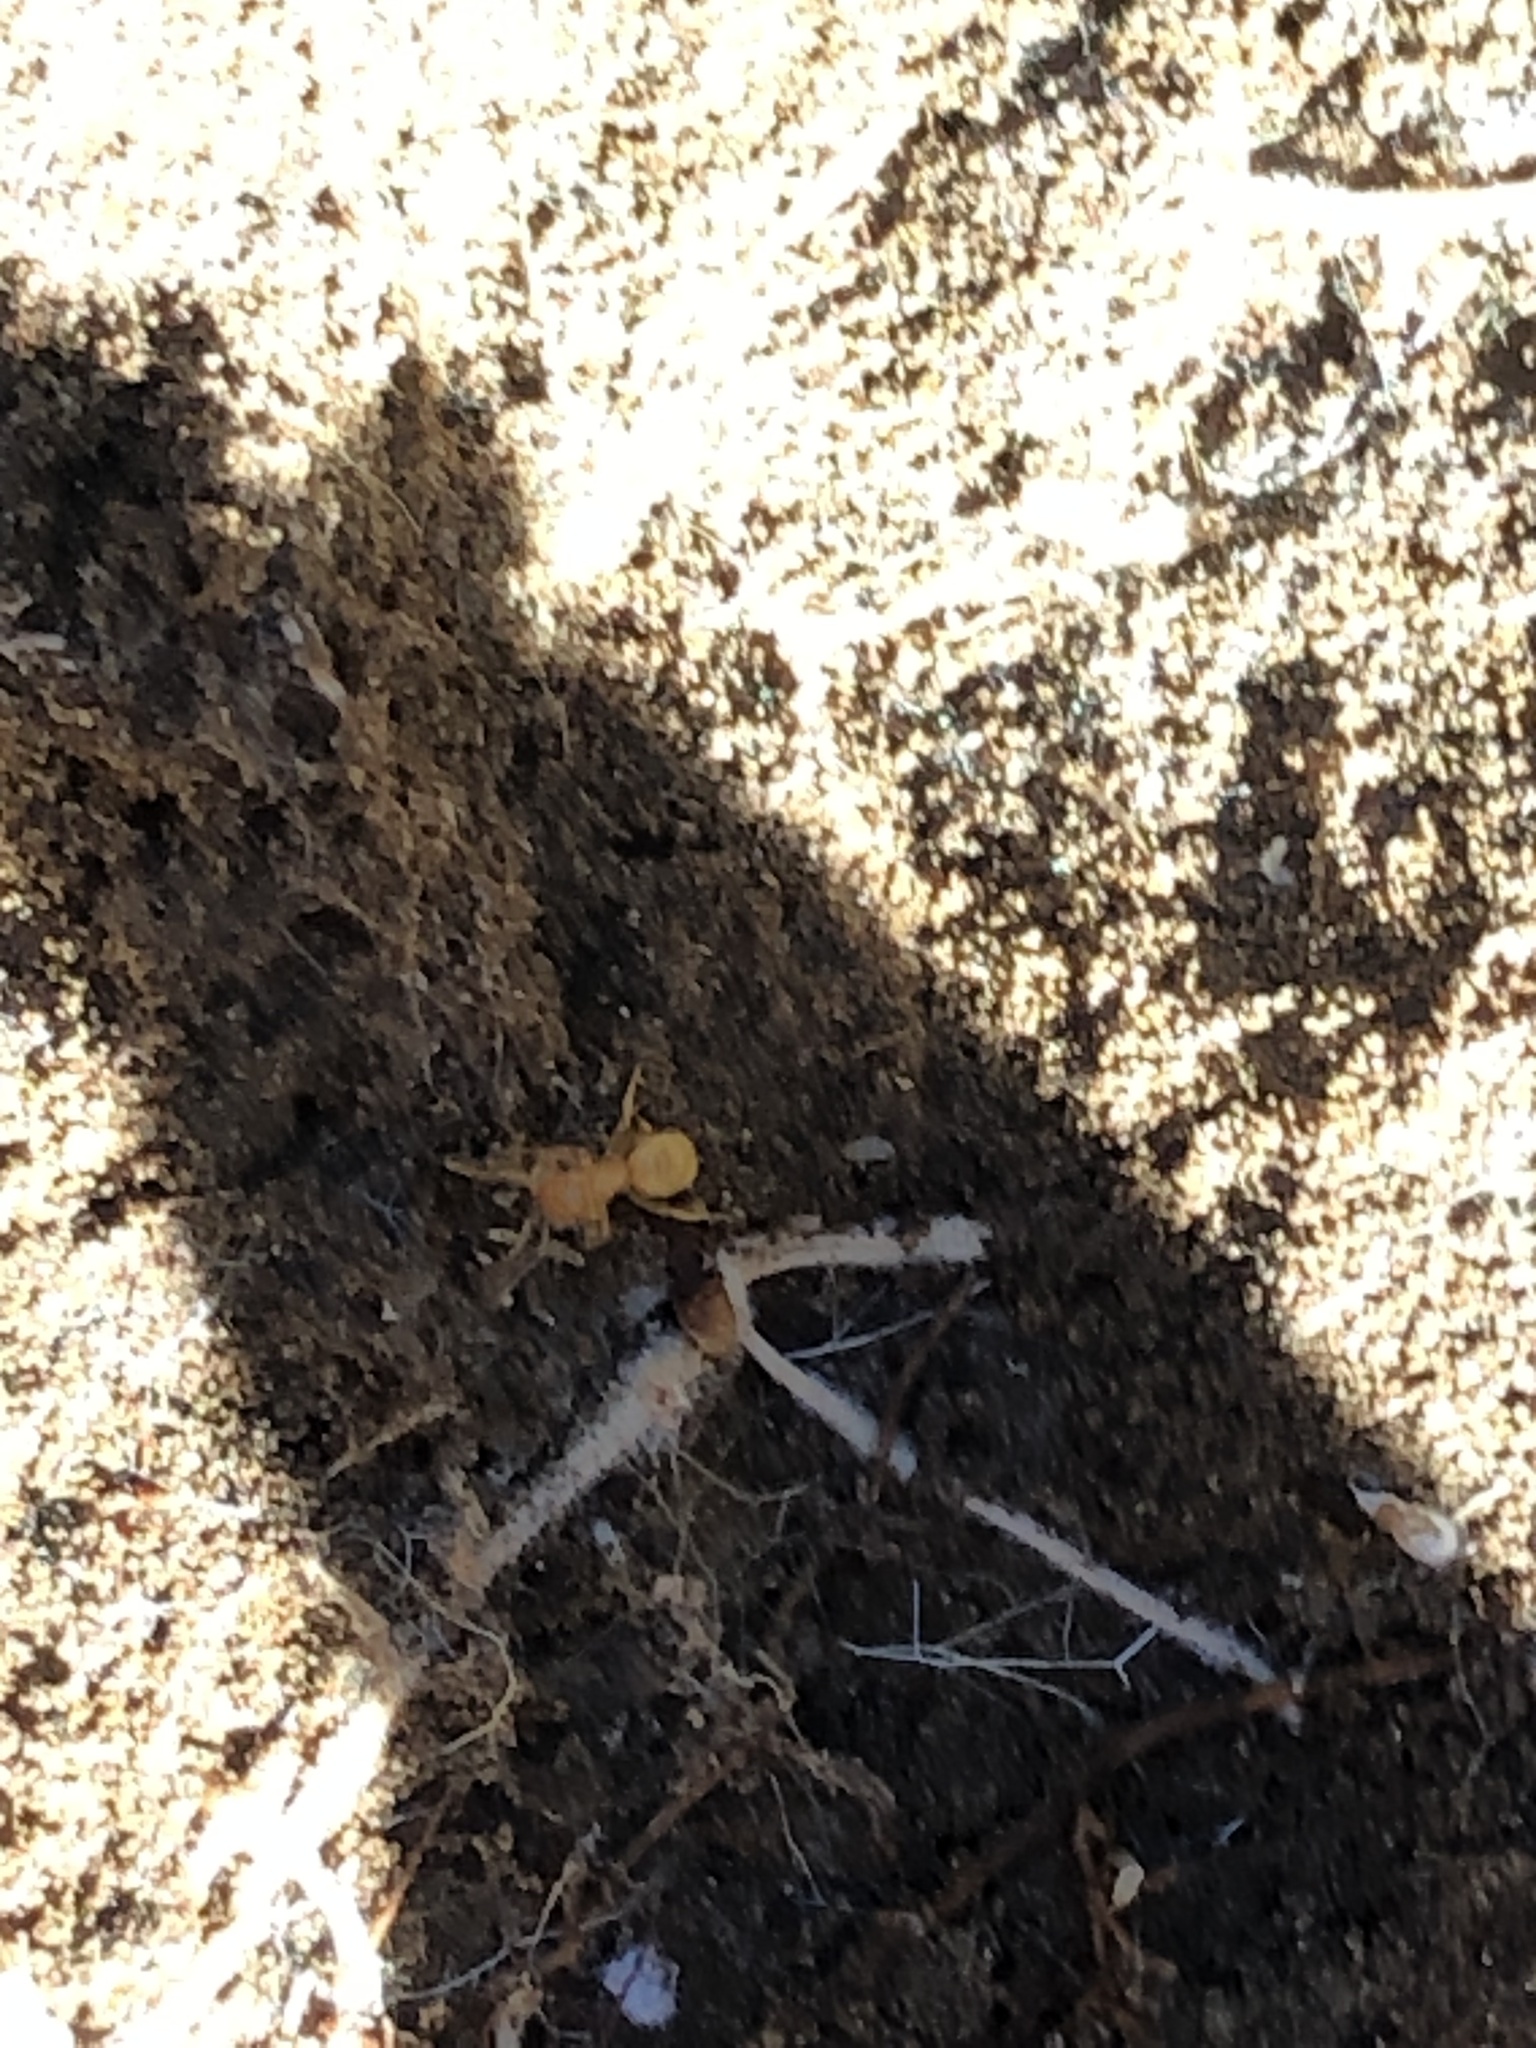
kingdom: Animalia
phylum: Arthropoda
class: Insecta
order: Hymenoptera
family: Formicidae
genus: Lasius
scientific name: Lasius nearcticus
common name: New world fuzzy ant
